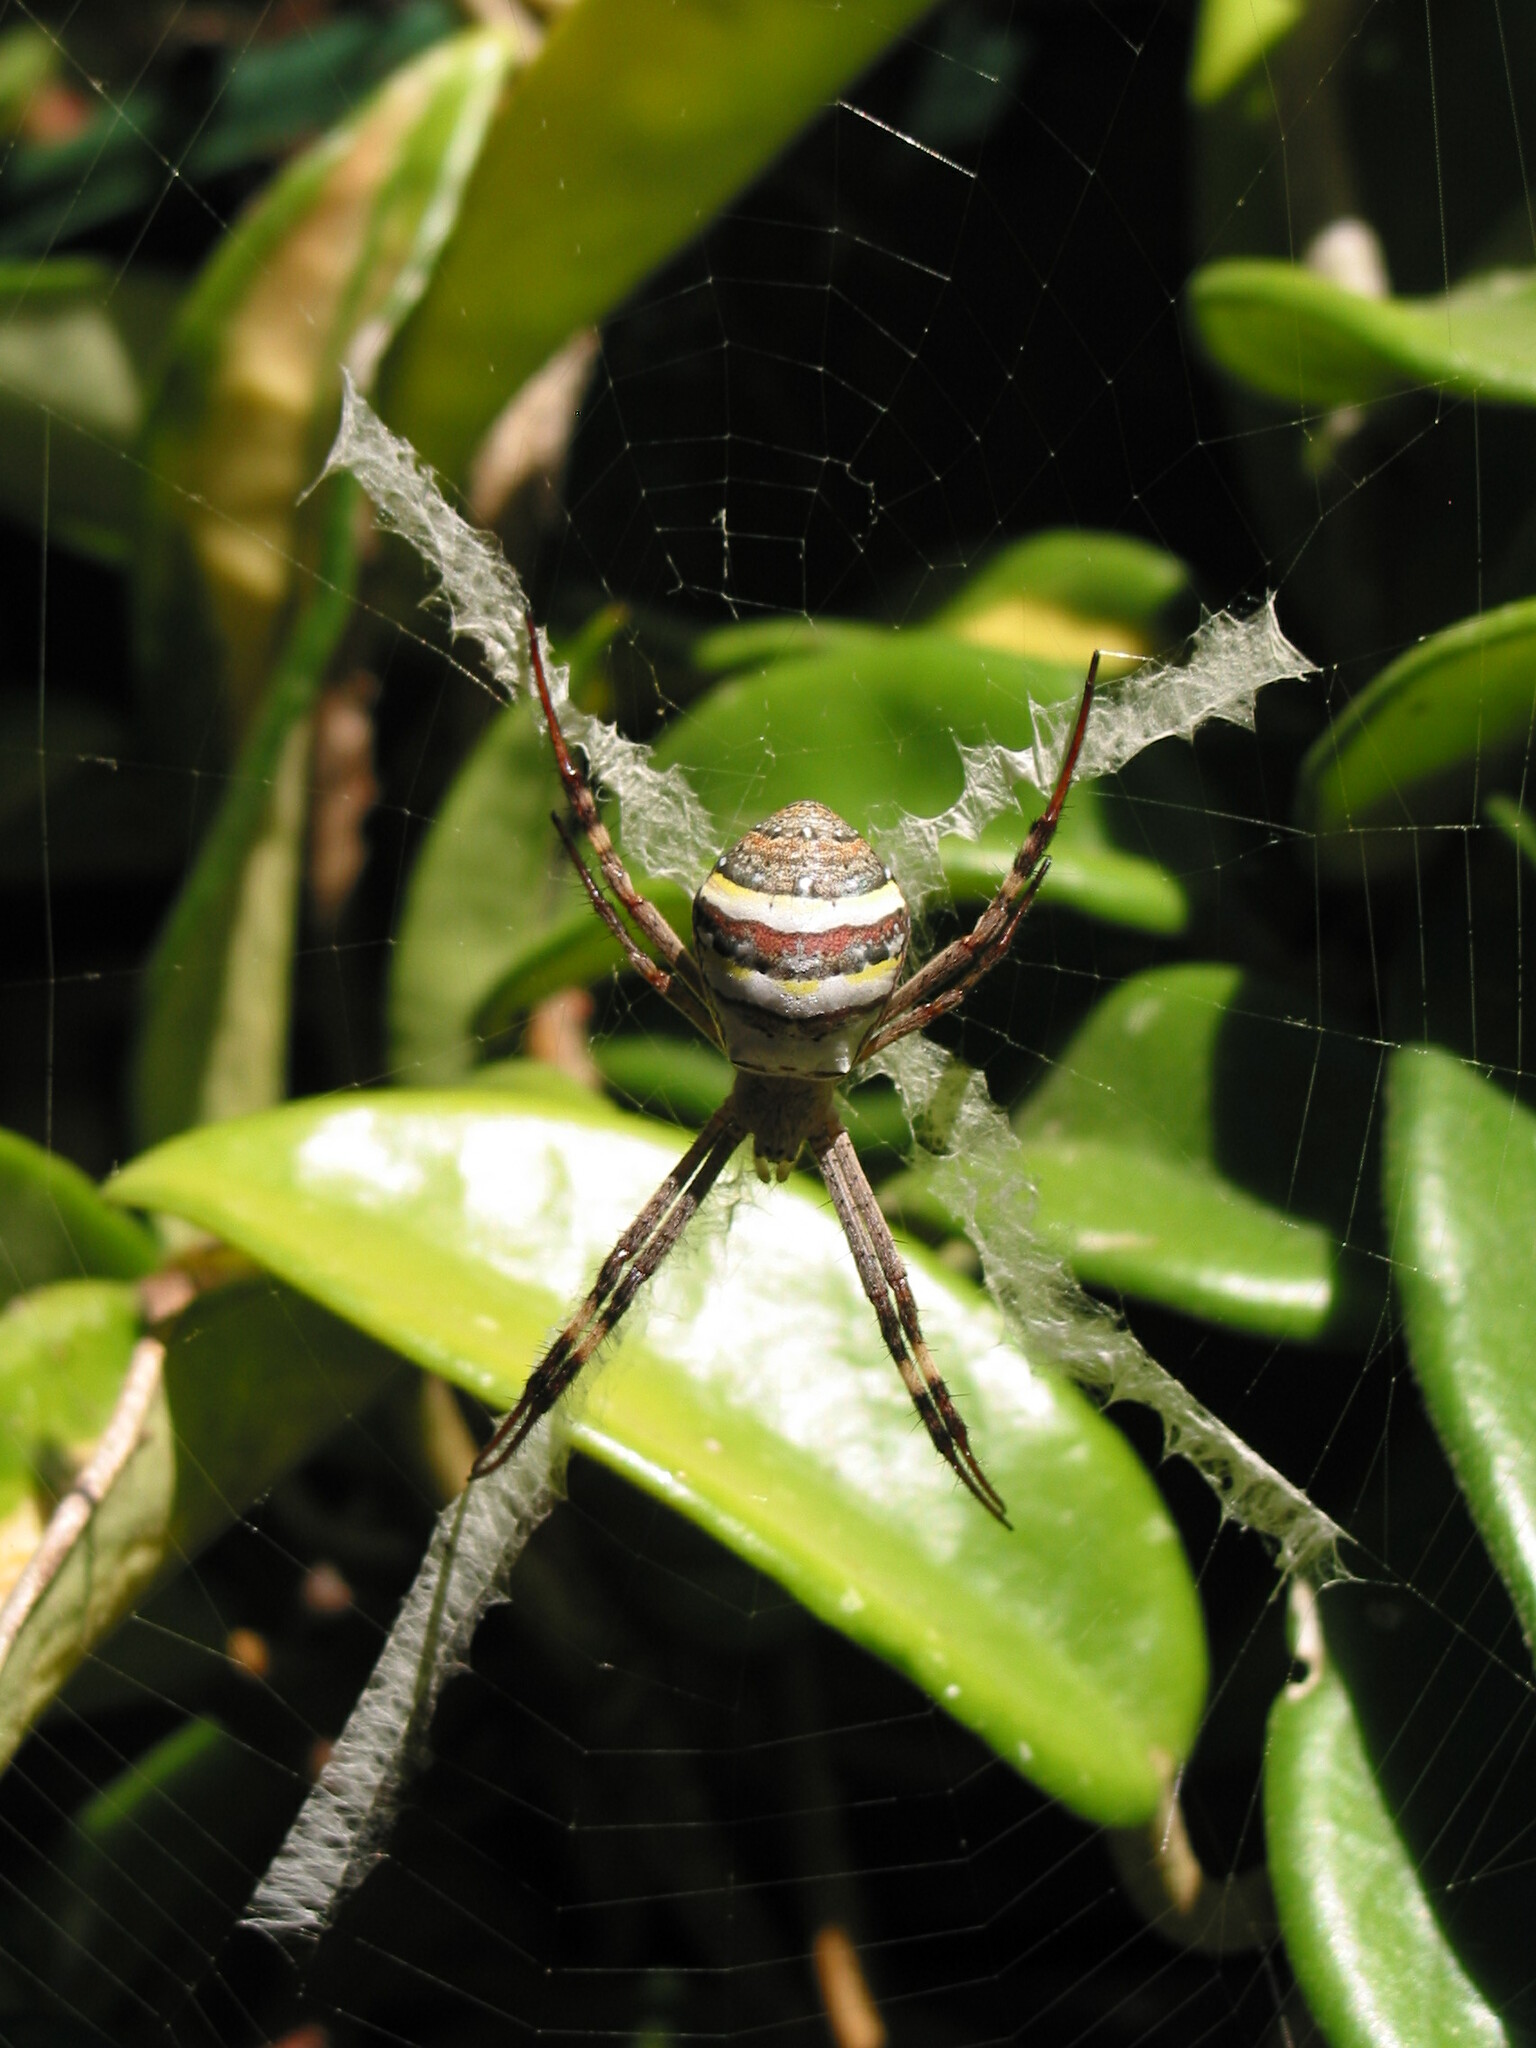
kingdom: Animalia
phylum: Arthropoda
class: Arachnida
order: Araneae
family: Araneidae
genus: Argiope
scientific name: Argiope keyserlingi
